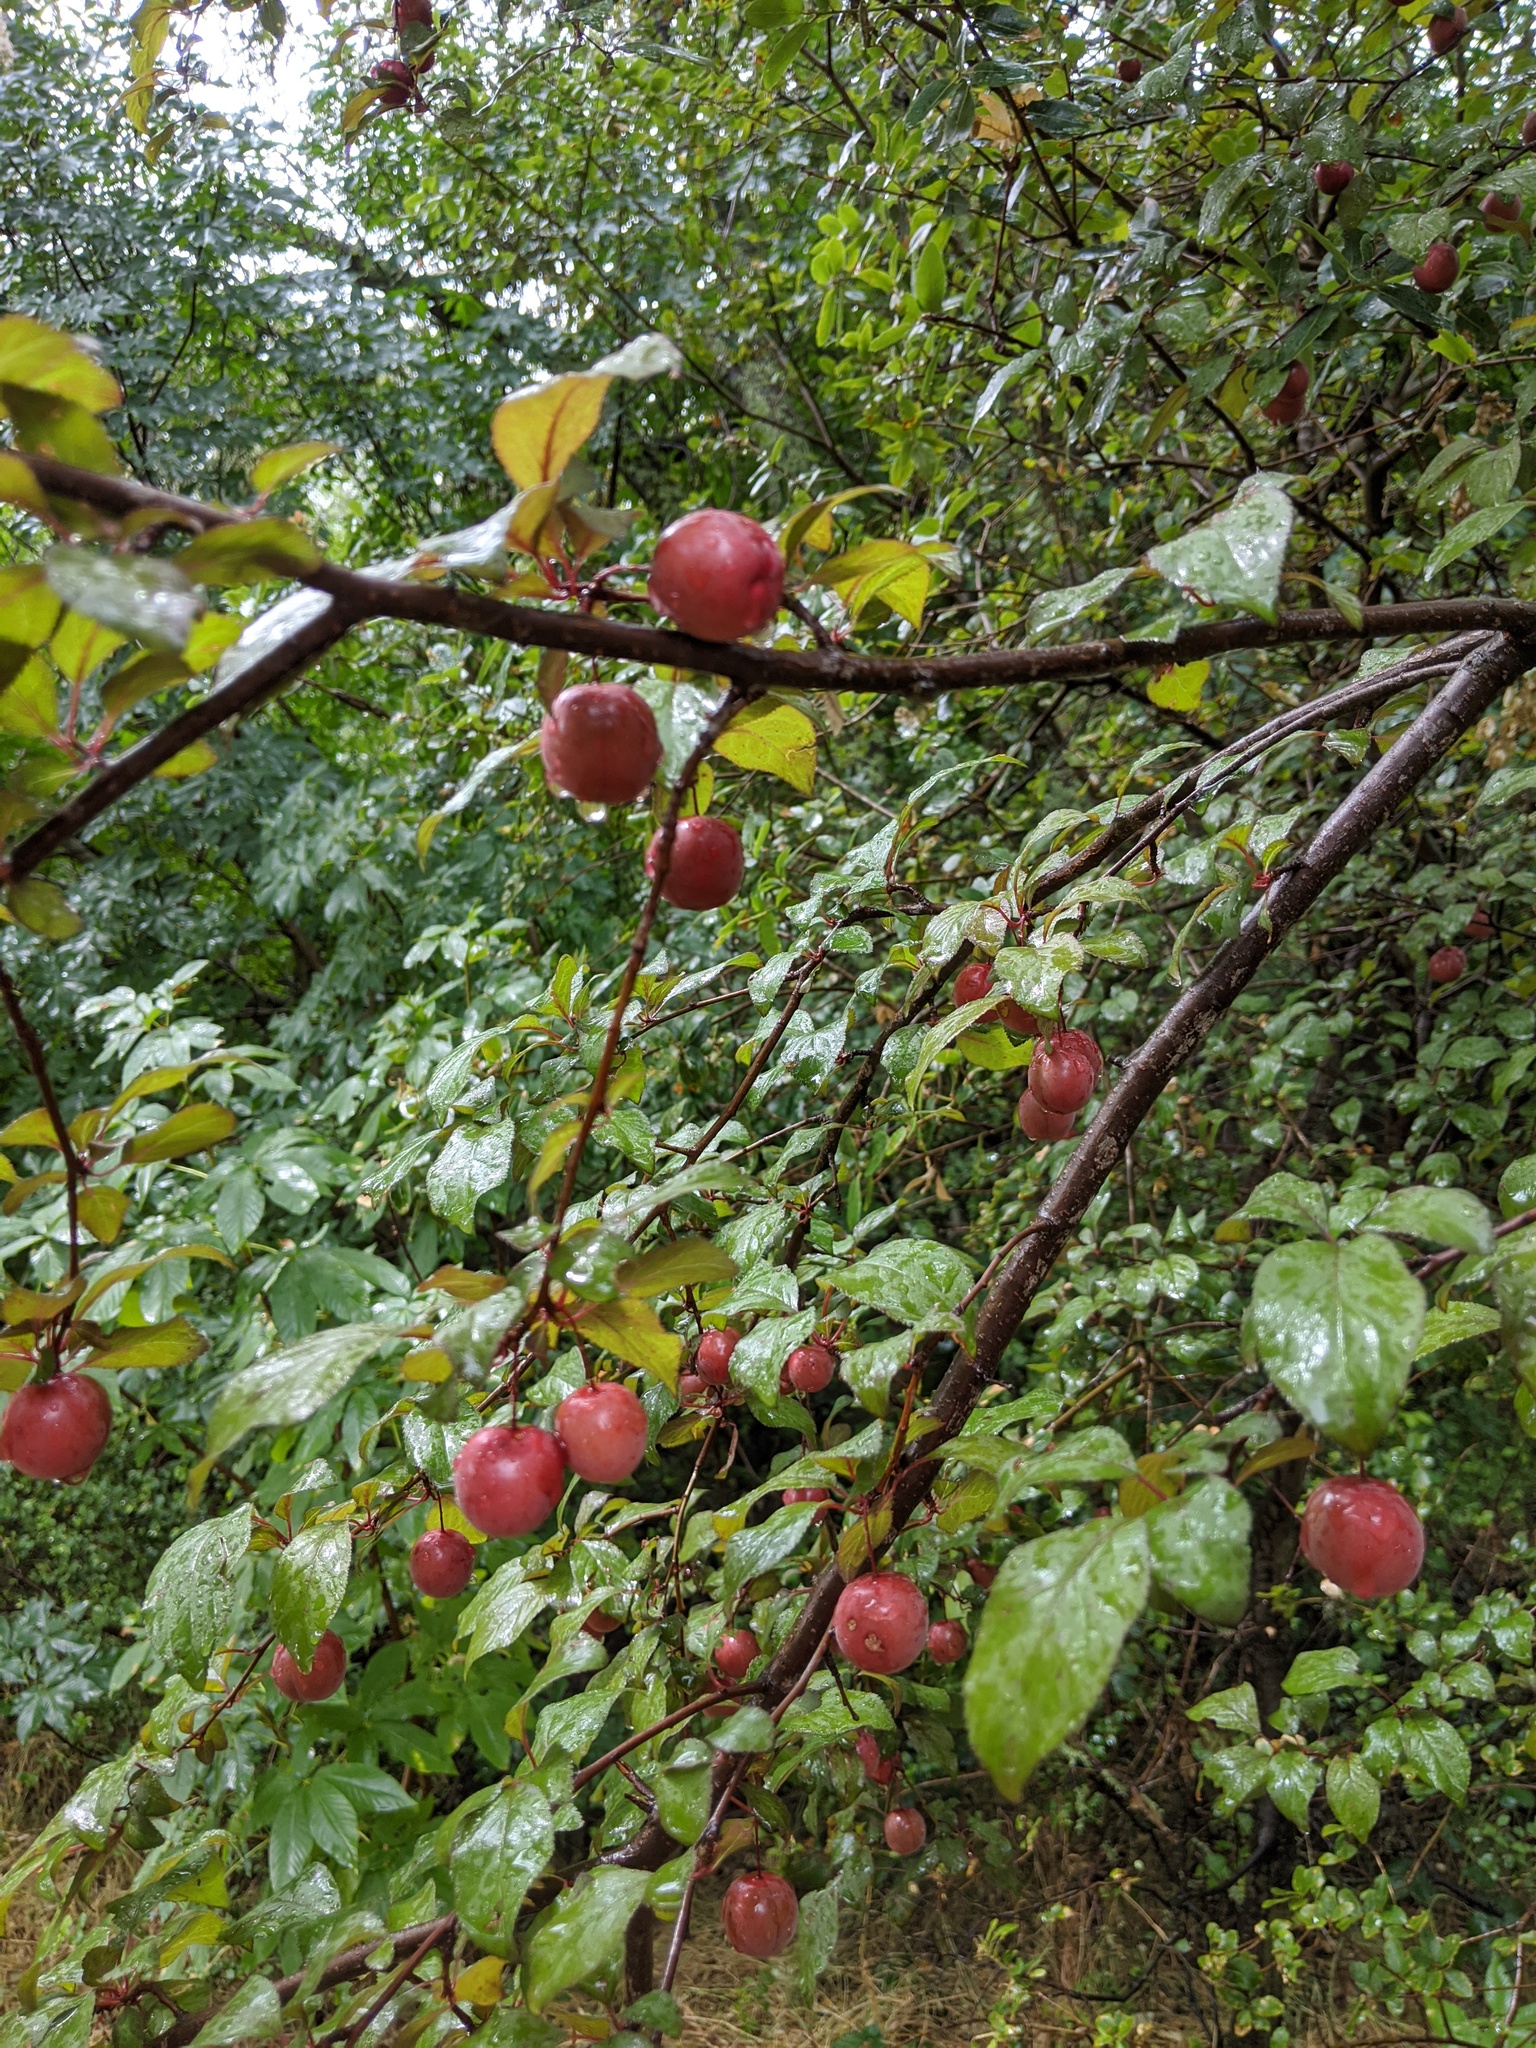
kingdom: Plantae
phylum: Tracheophyta
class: Magnoliopsida
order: Rosales
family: Rosaceae
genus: Prunus
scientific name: Prunus cerasifera
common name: Cherry plum
